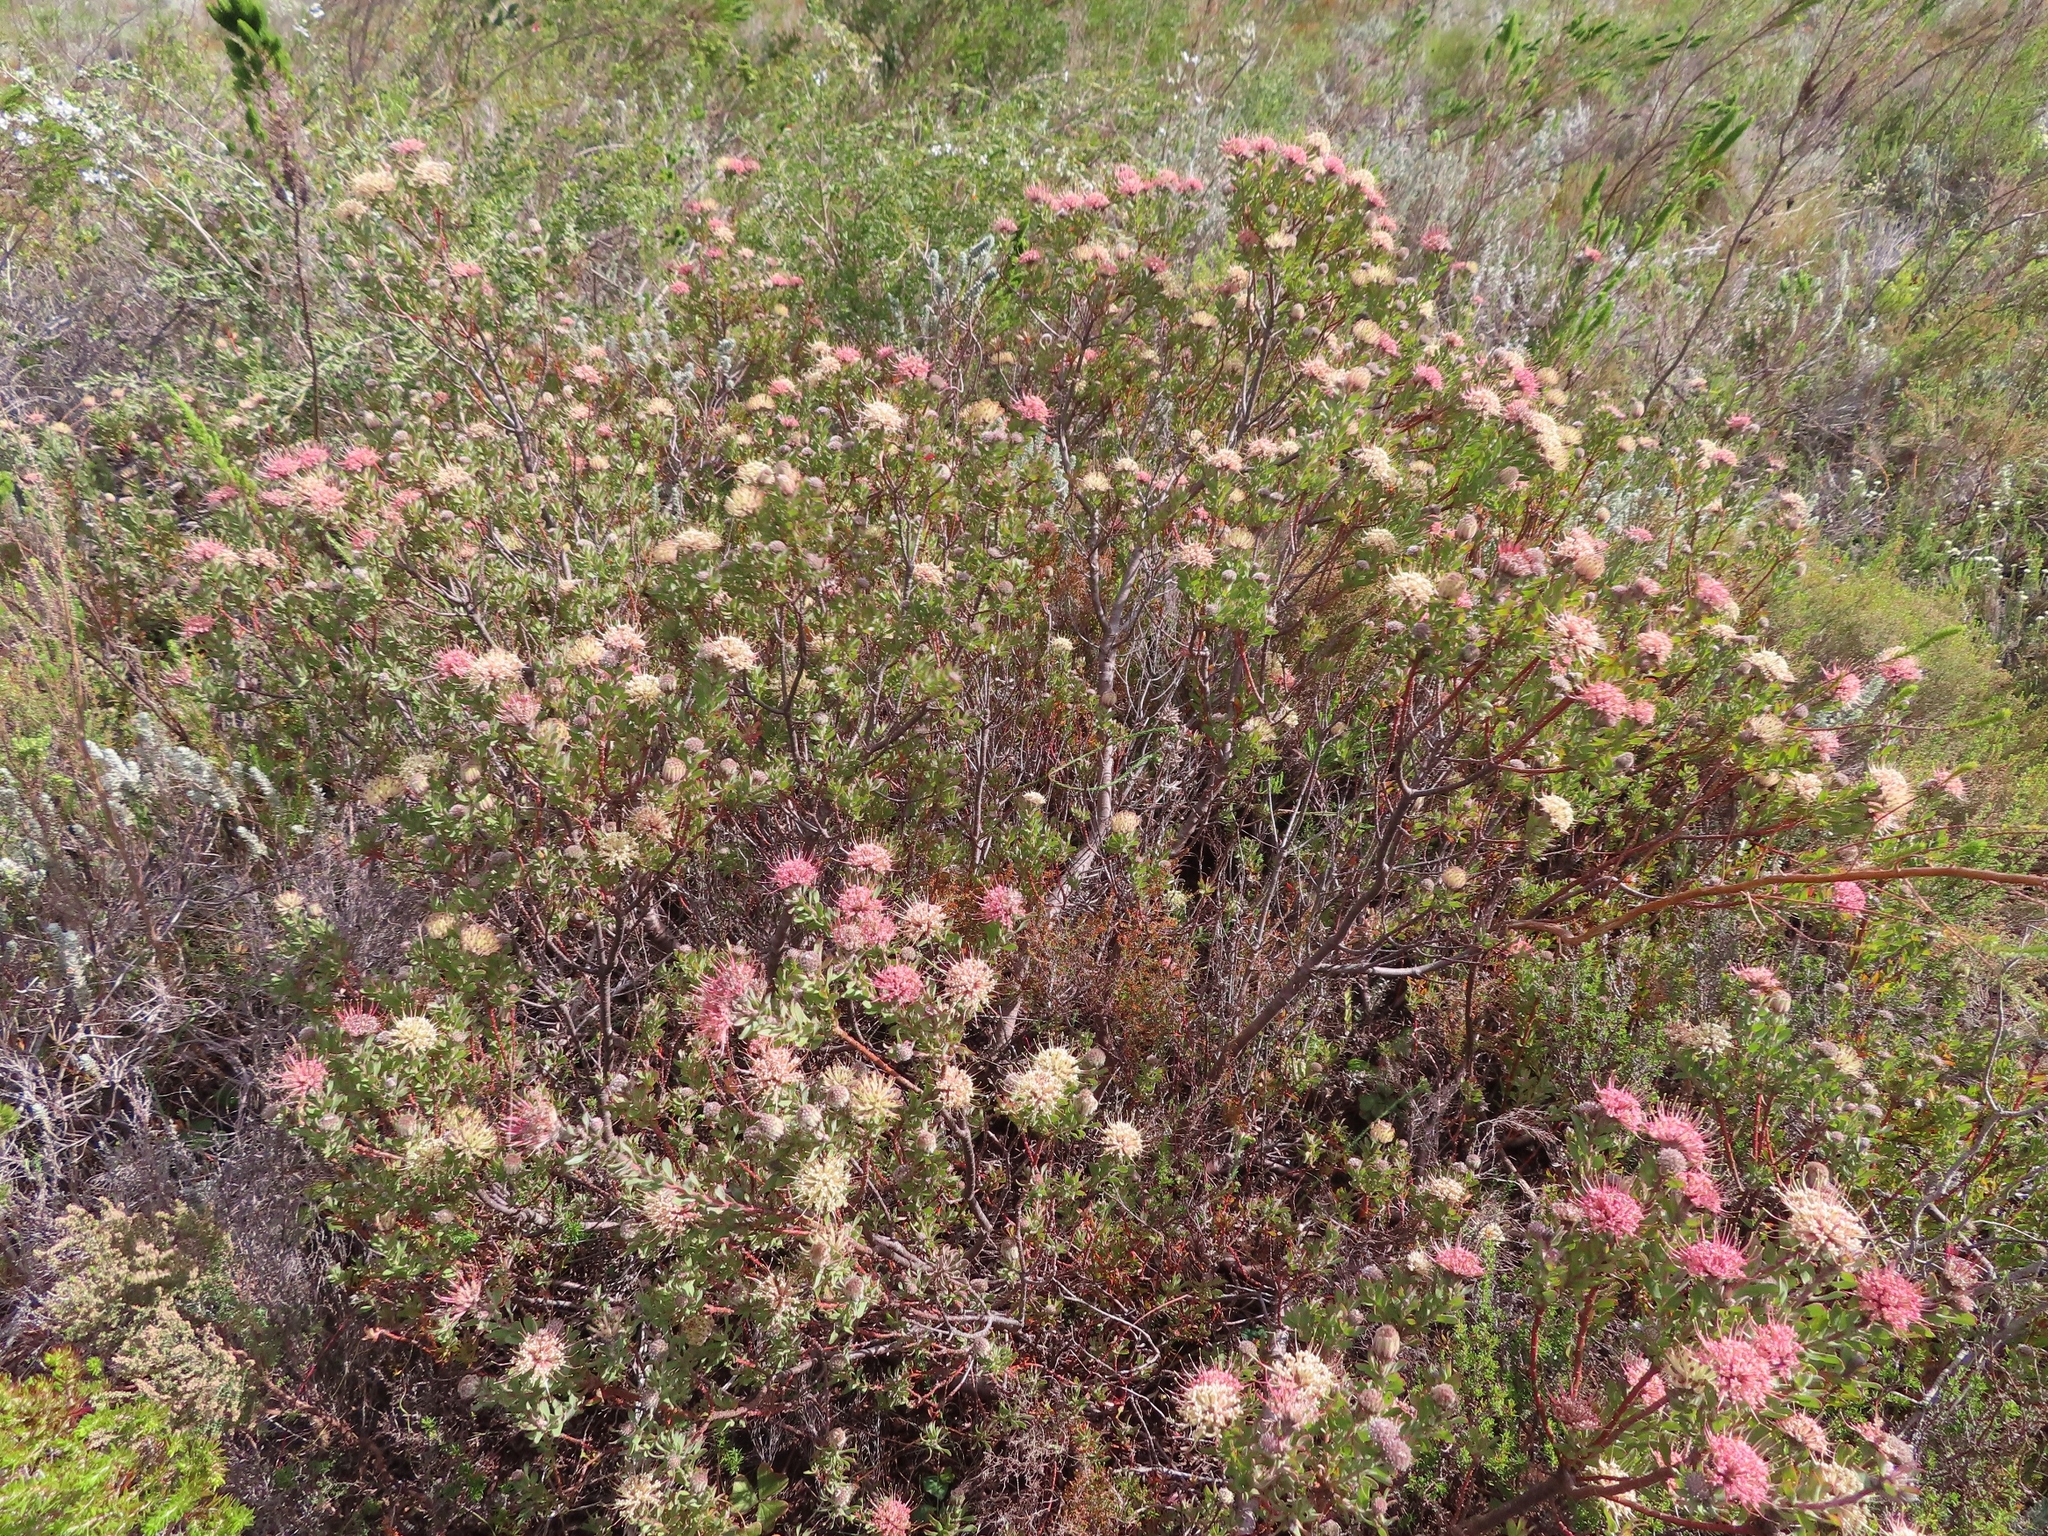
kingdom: Plantae
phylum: Tracheophyta
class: Magnoliopsida
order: Proteales
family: Proteaceae
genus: Leucospermum
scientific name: Leucospermum calligerum
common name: Arid pincushion
